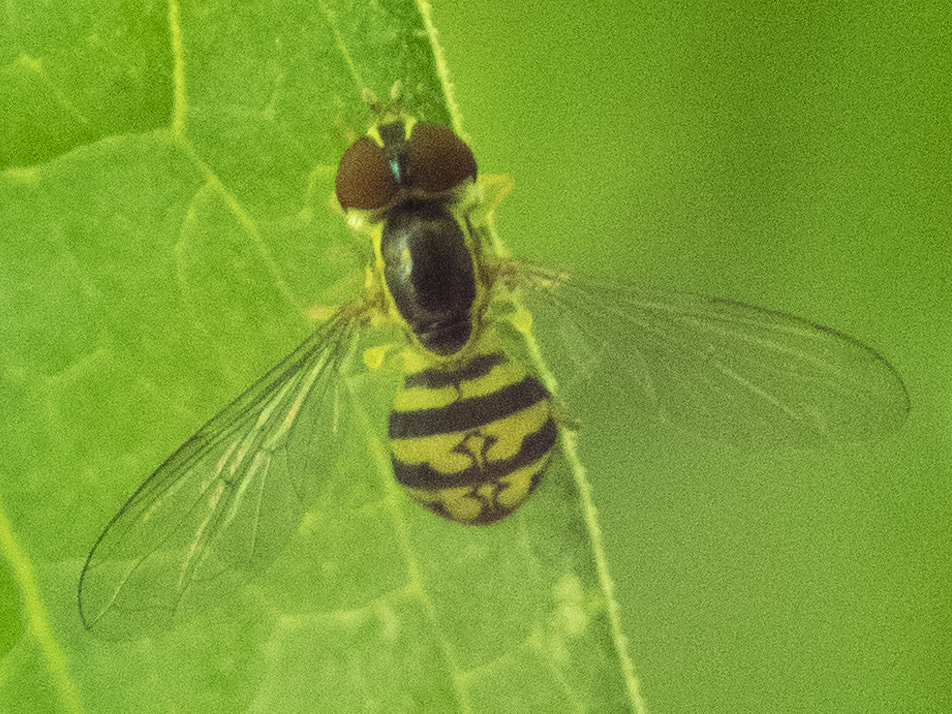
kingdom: Animalia
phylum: Arthropoda
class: Insecta
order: Diptera
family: Syrphidae
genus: Toxomerus
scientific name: Toxomerus geminatus
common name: Eastern calligrapher
